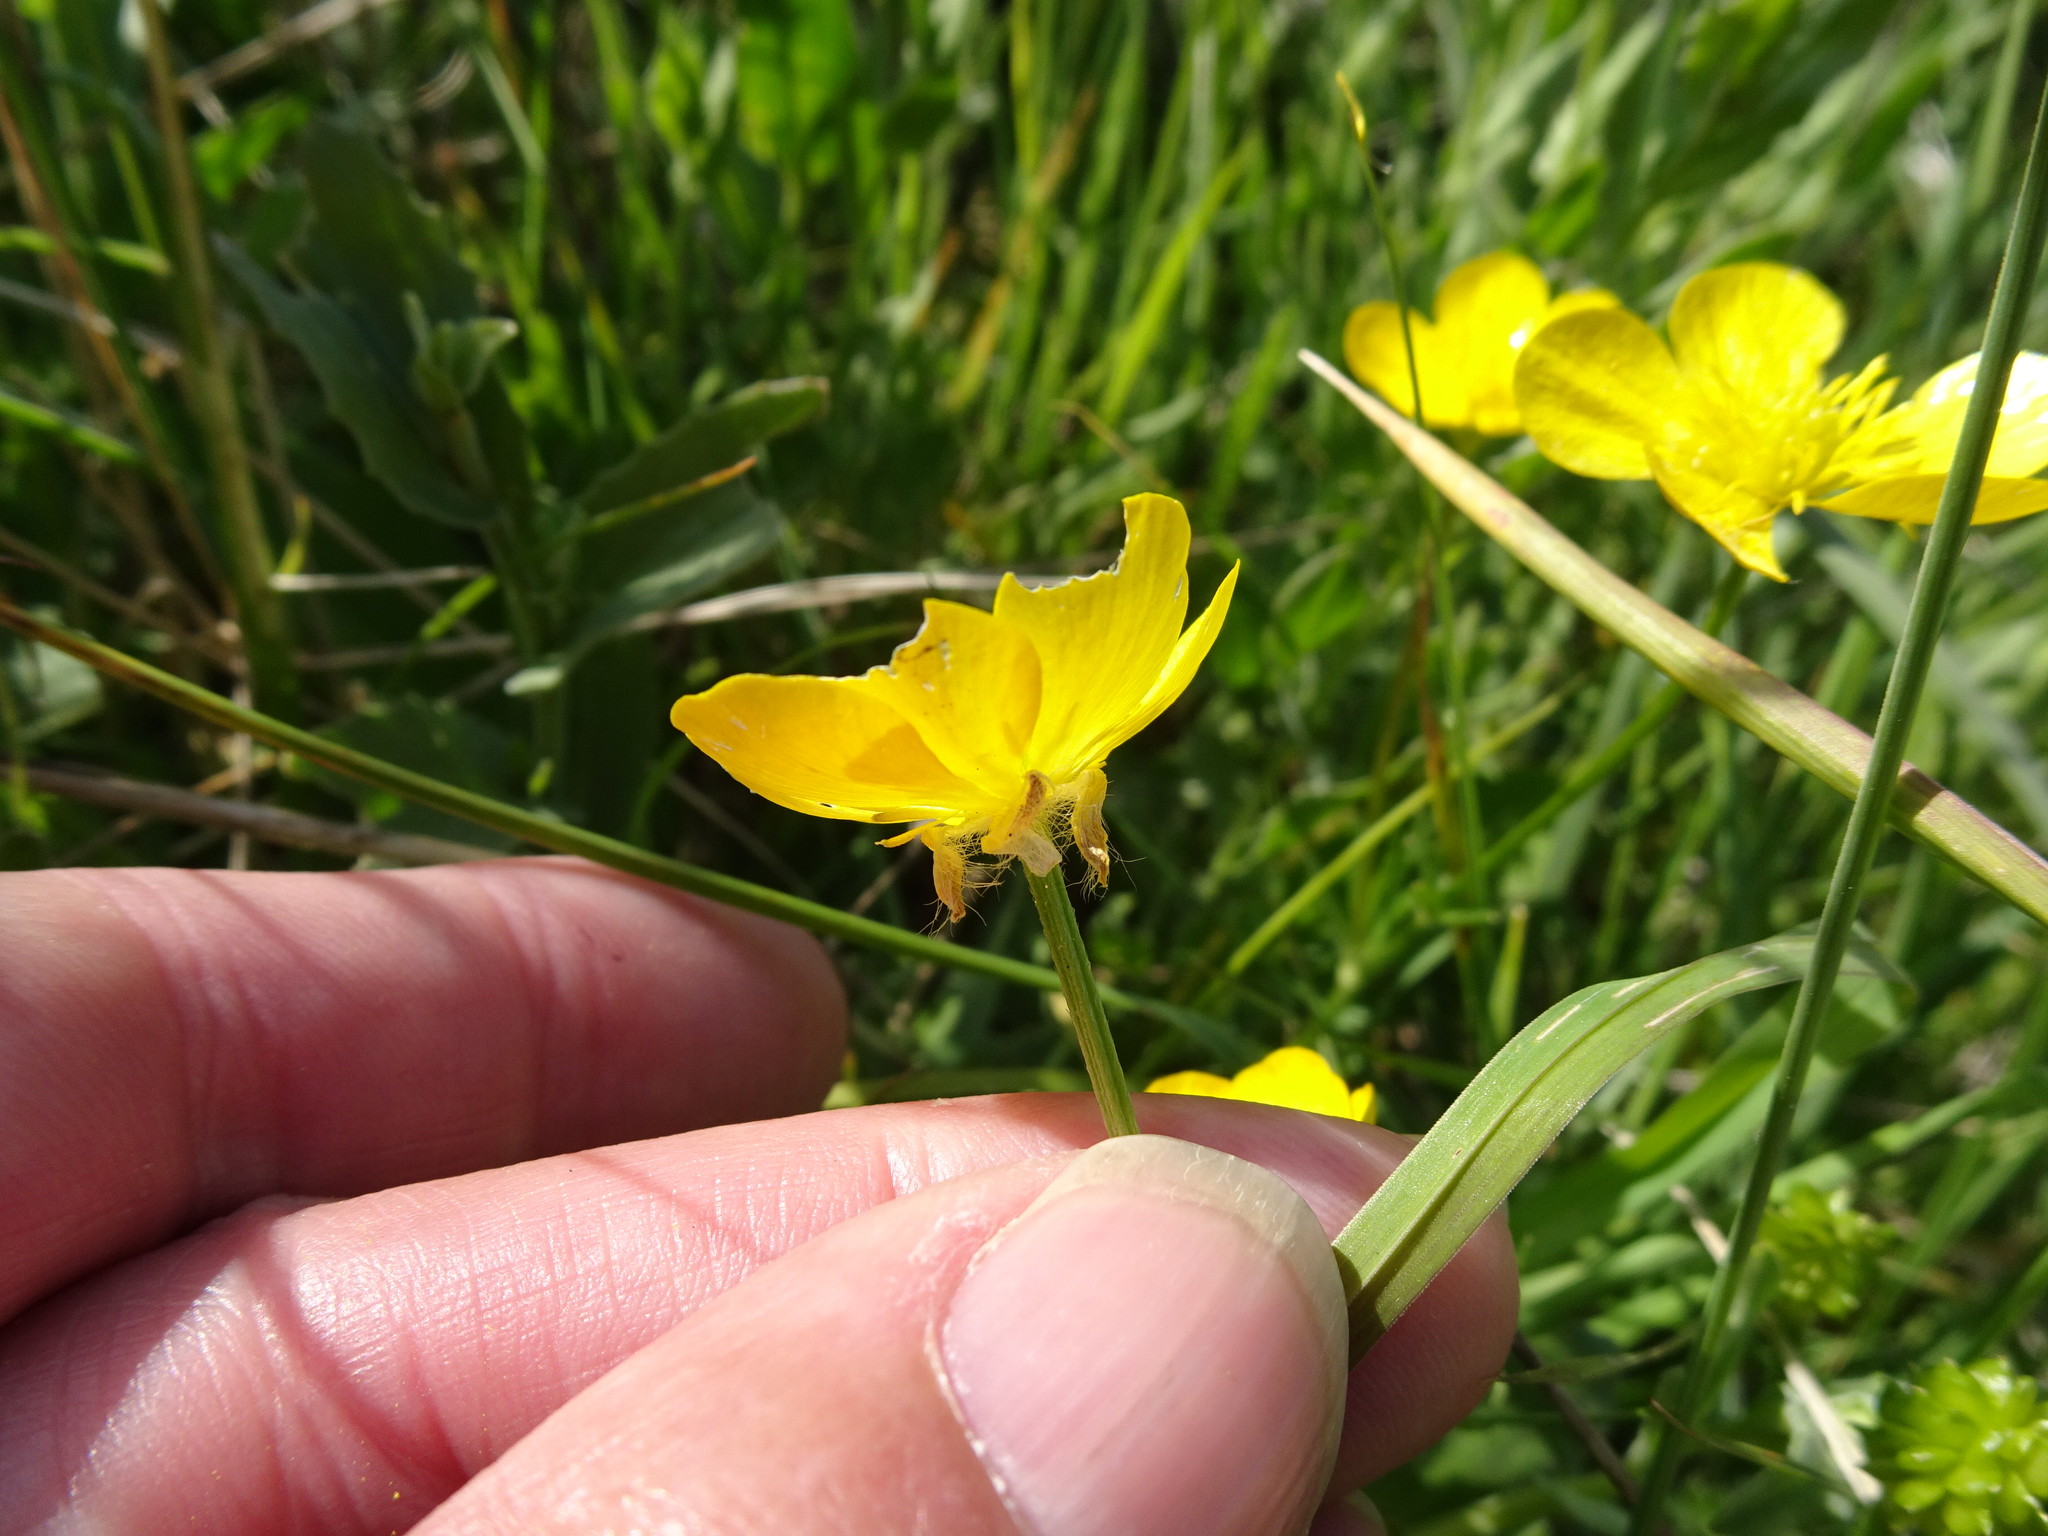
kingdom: Plantae
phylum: Tracheophyta
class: Magnoliopsida
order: Ranunculales
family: Ranunculaceae
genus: Ranunculus
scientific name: Ranunculus bulbosus
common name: Bulbous buttercup
